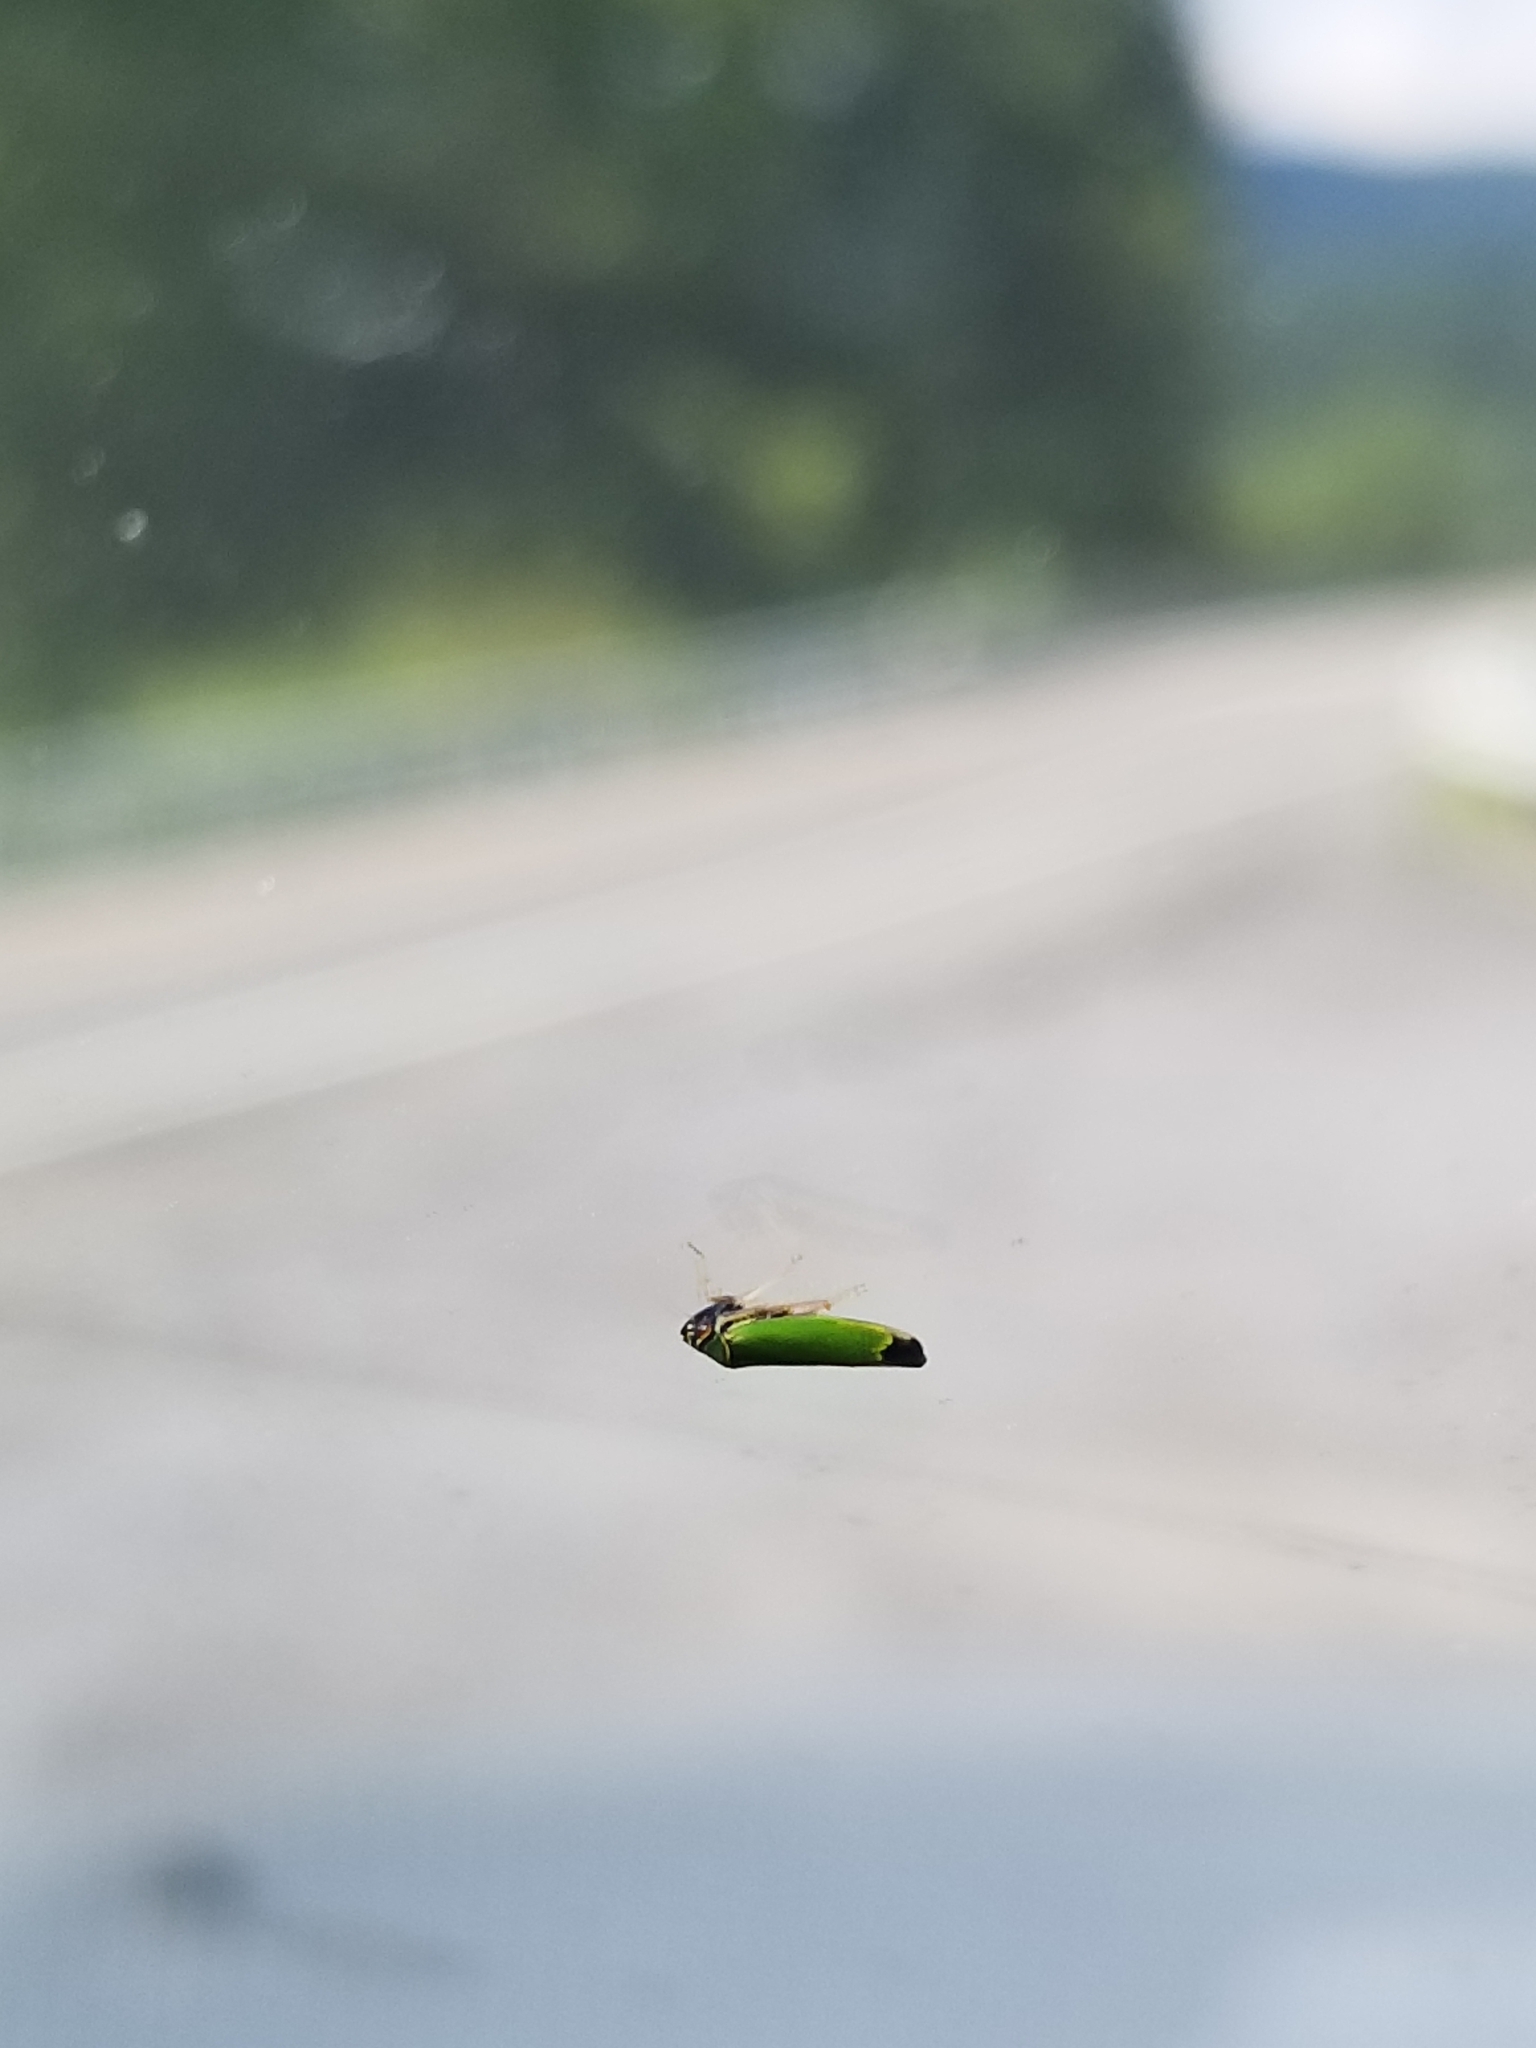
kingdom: Animalia
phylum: Arthropoda
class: Insecta
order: Hemiptera
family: Cicadellidae
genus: Tylozygus
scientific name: Tylozygus geometricus
